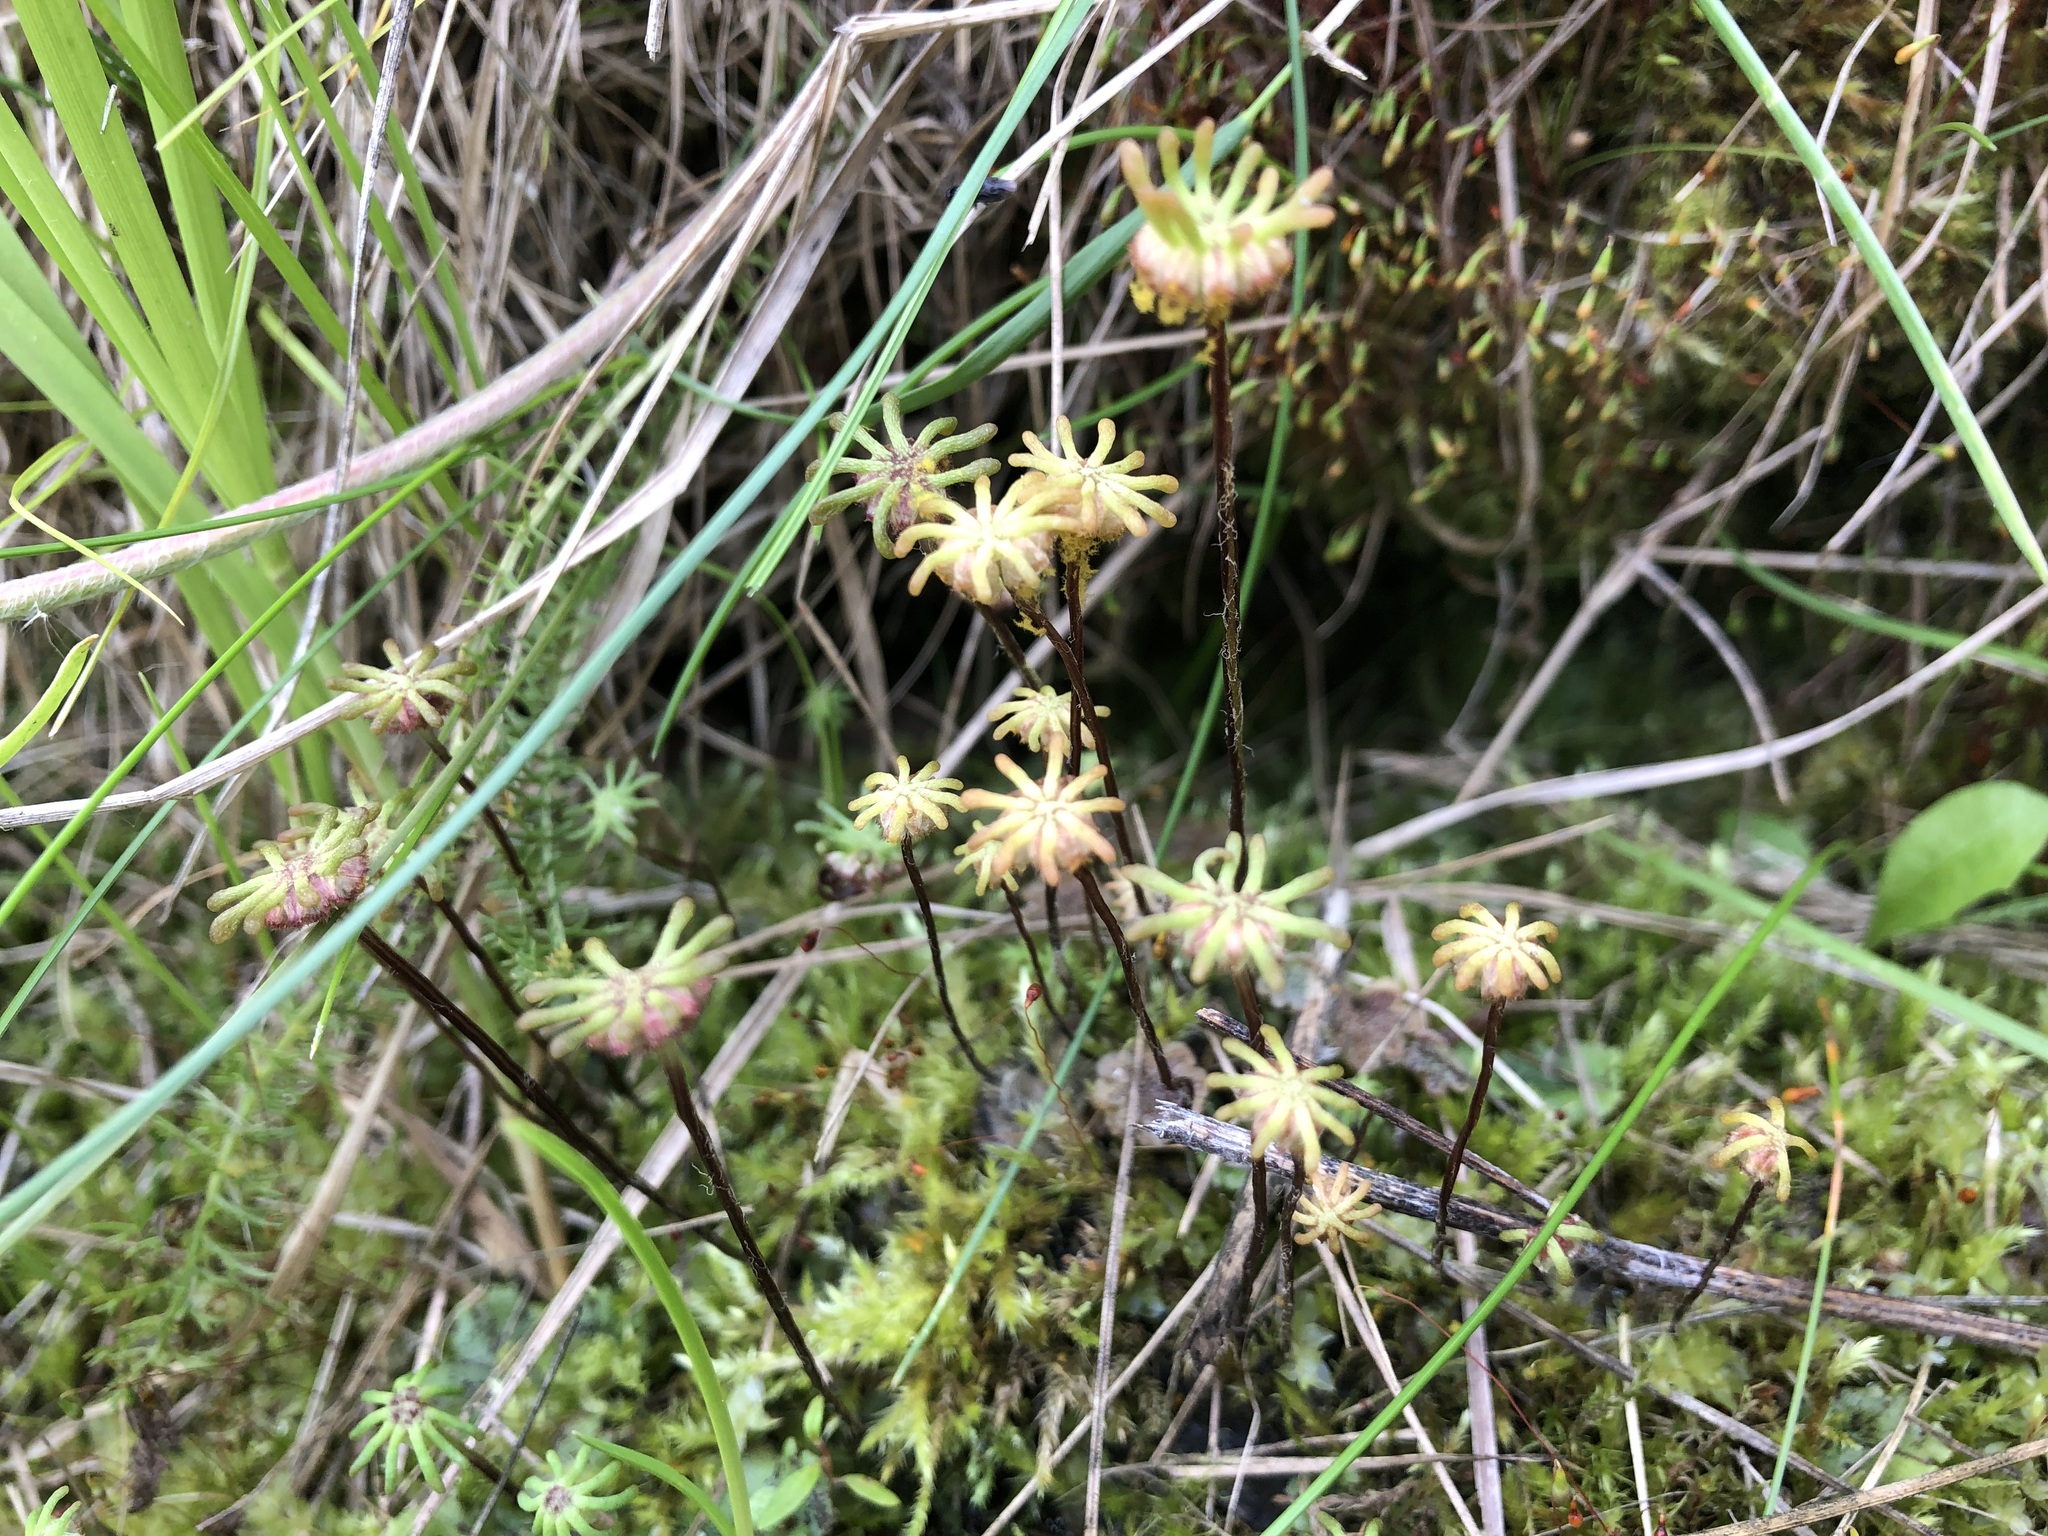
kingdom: Plantae
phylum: Marchantiophyta
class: Marchantiopsida
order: Marchantiales
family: Marchantiaceae
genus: Marchantia
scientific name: Marchantia polymorpha
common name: Common liverwort
